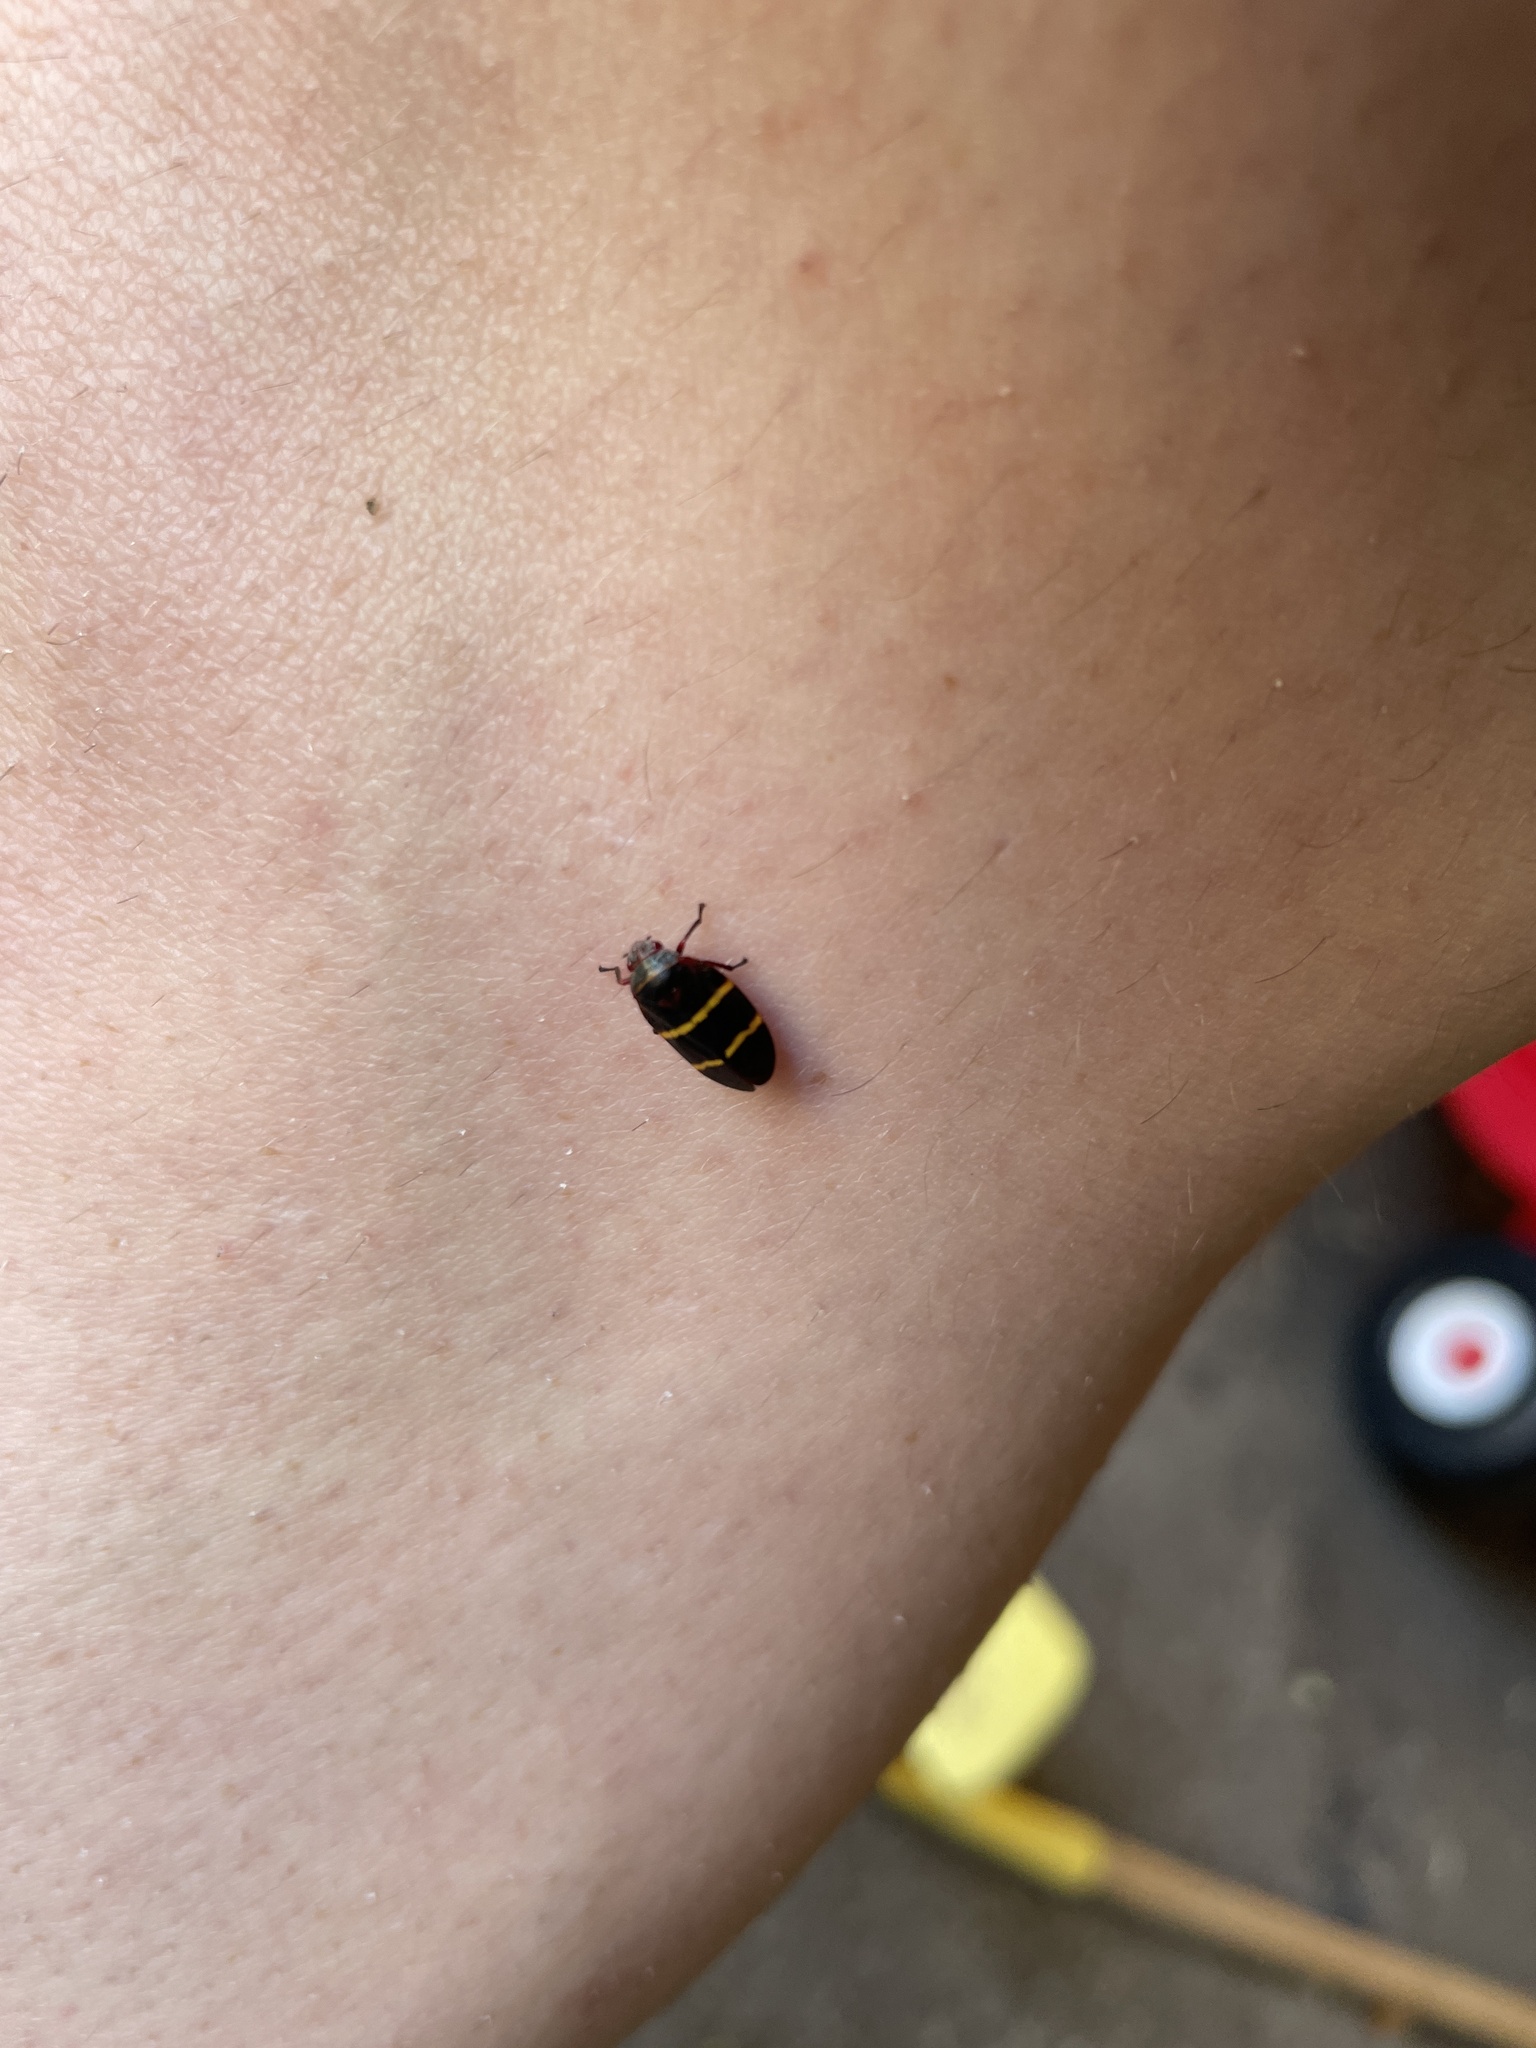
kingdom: Animalia
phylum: Arthropoda
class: Insecta
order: Hemiptera
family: Cercopidae
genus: Prosapia
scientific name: Prosapia bicincta
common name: Twolined spittlebug
